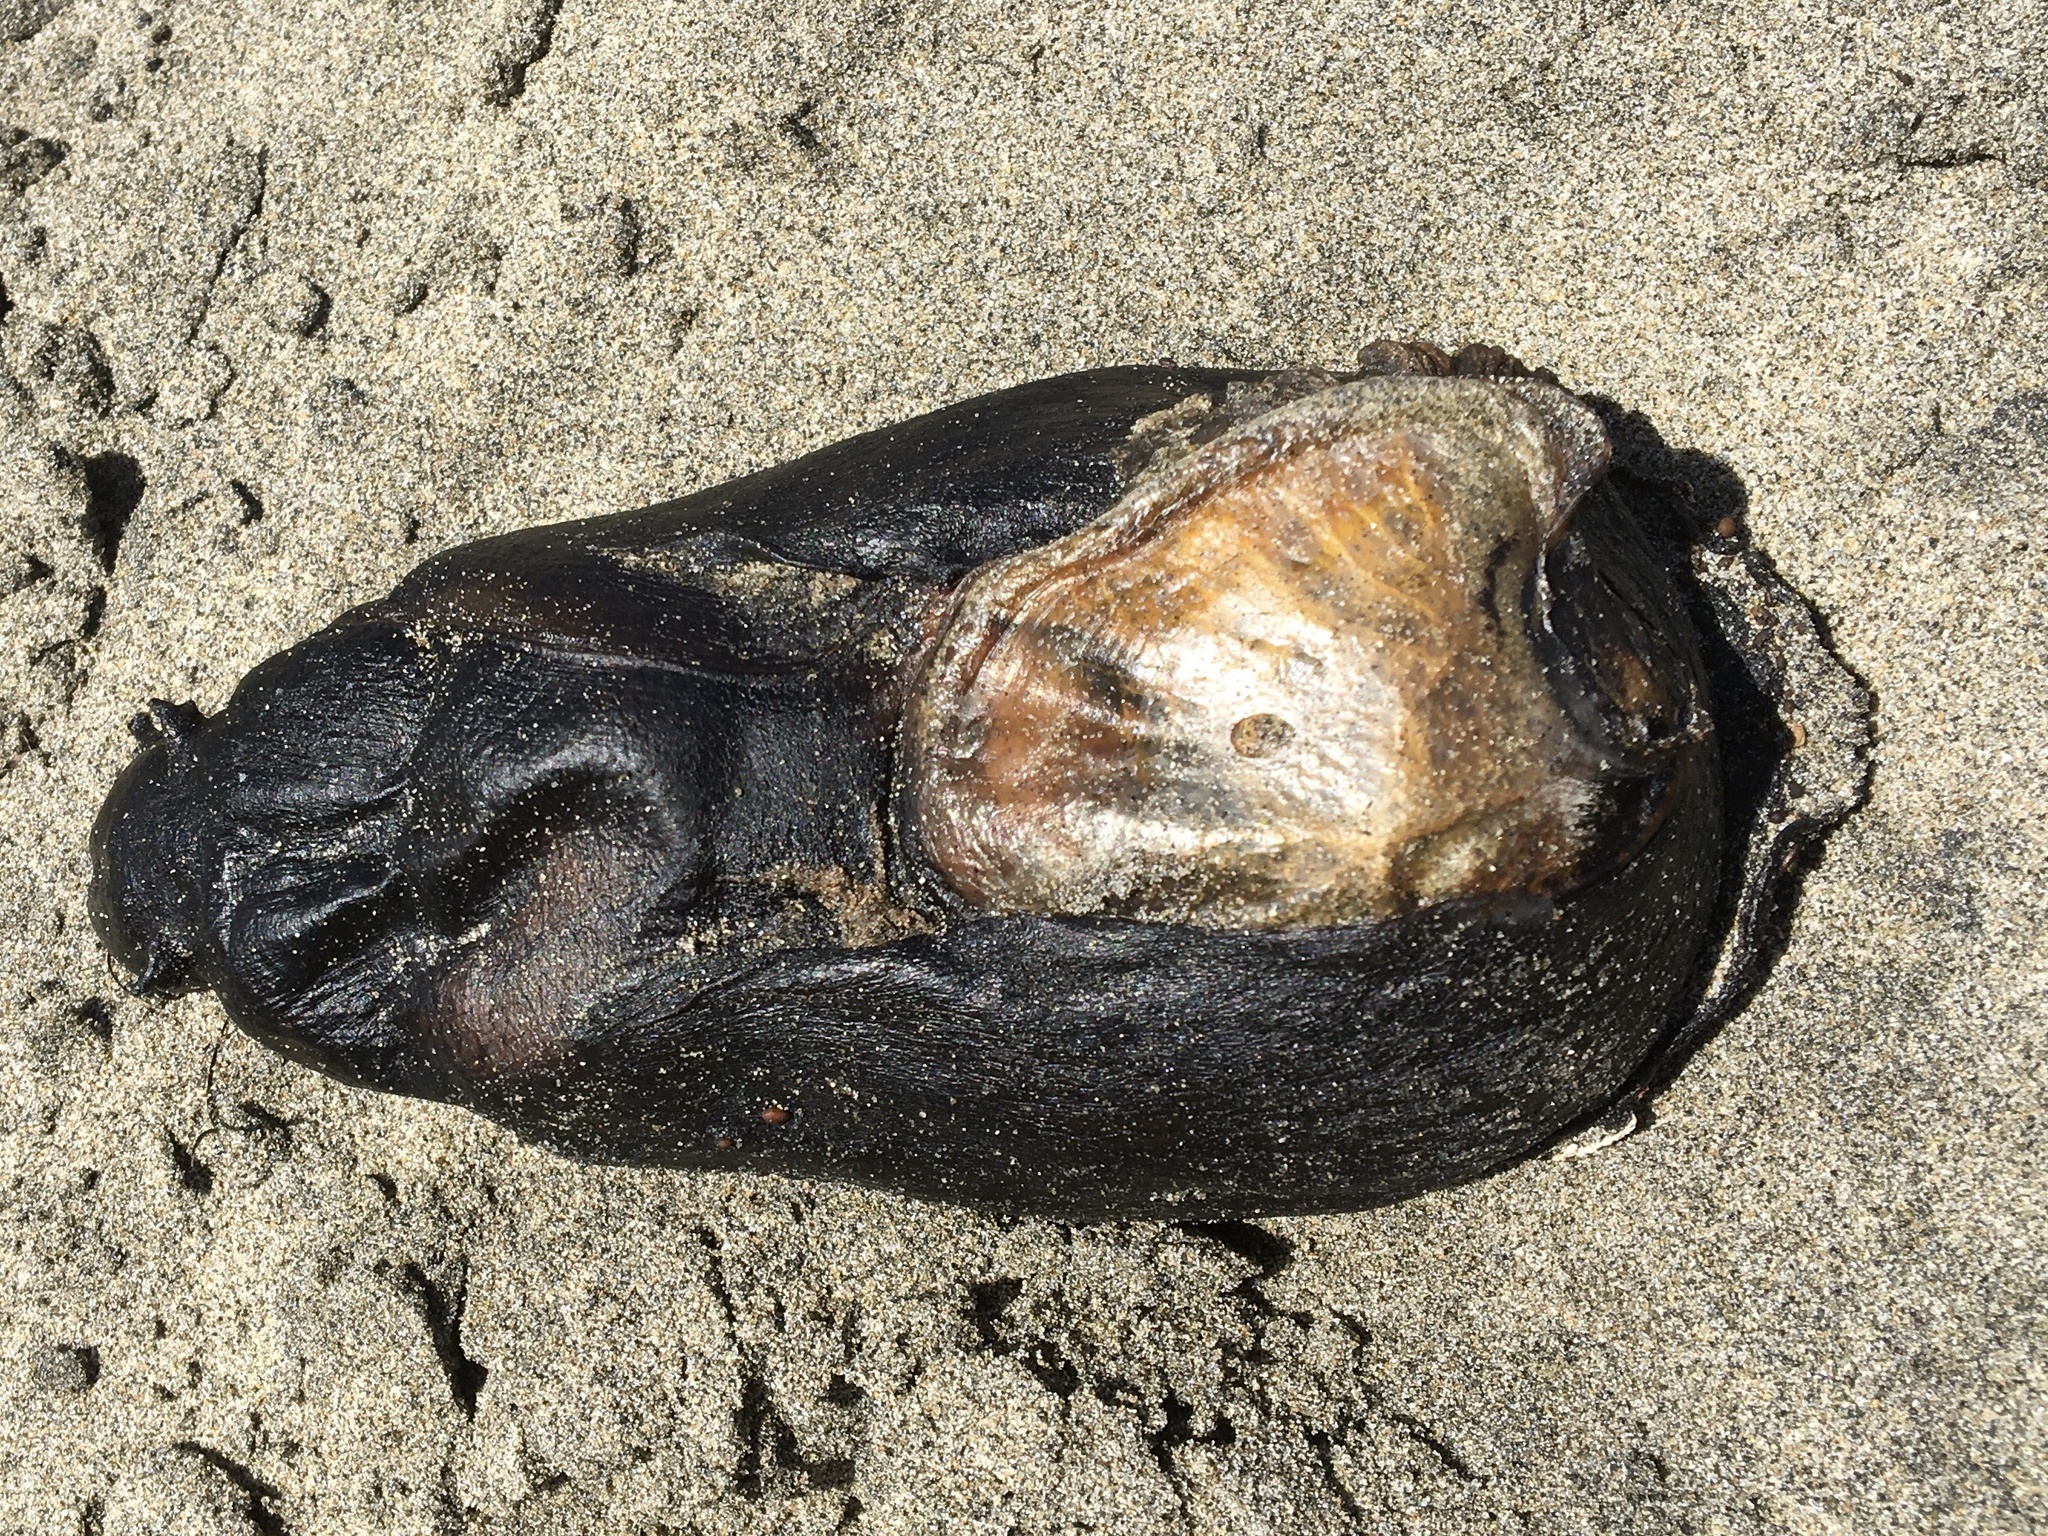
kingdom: Animalia
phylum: Mollusca
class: Gastropoda
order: Aplysiida
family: Aplysiidae
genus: Aplysia
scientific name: Aplysia vaccaria
